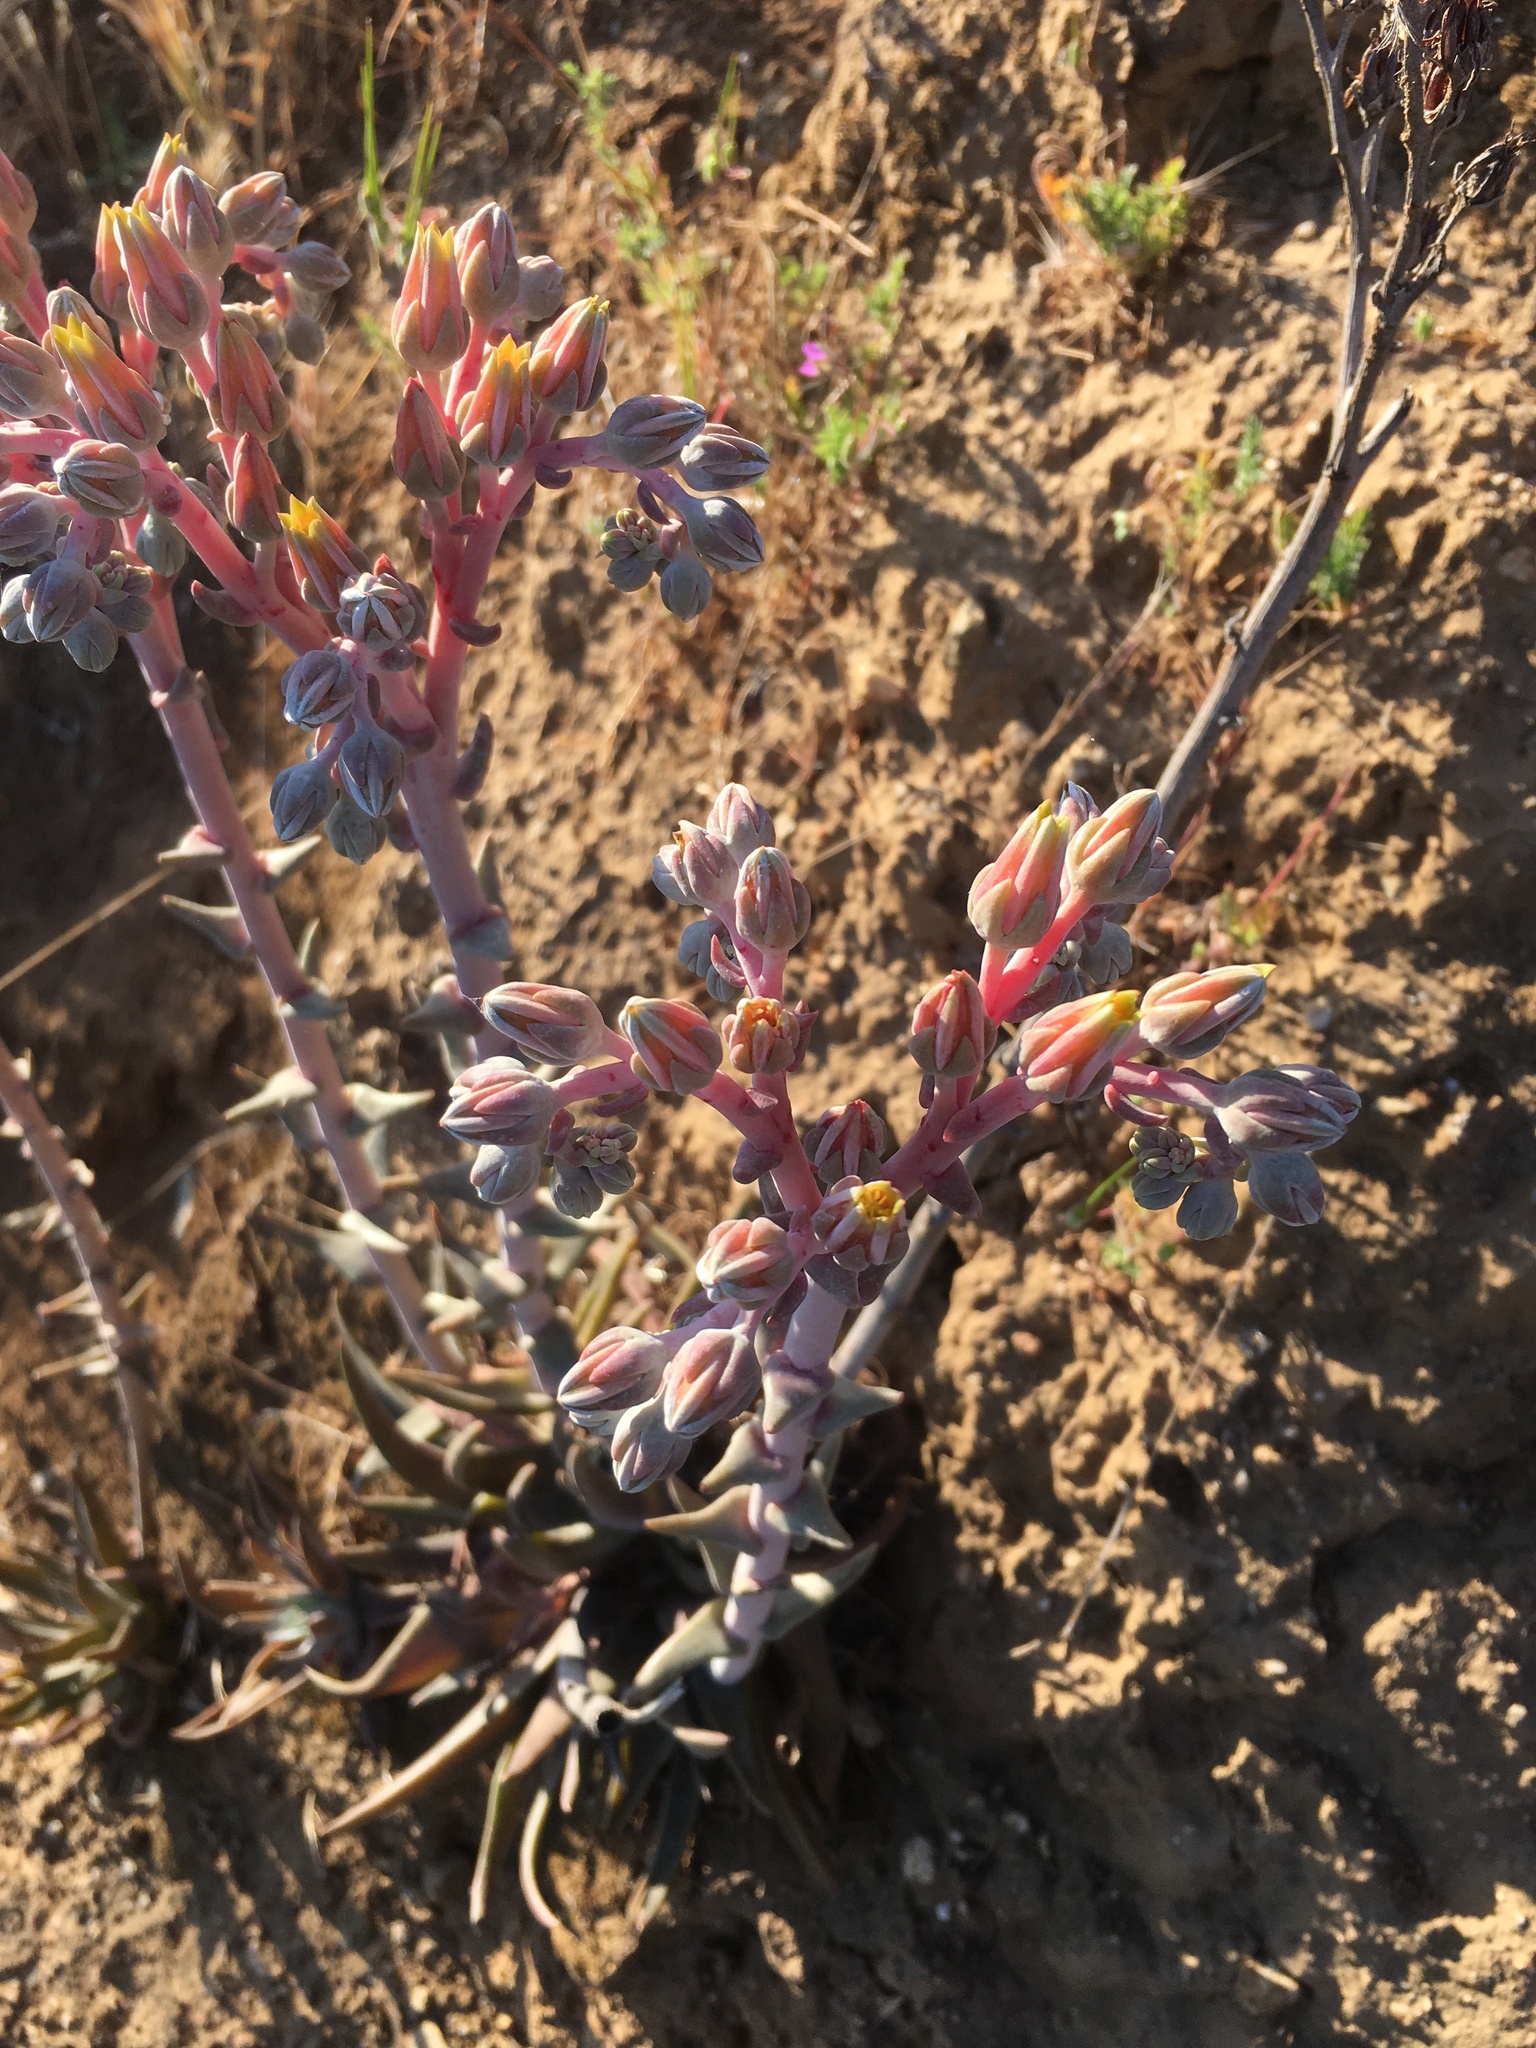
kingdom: Plantae
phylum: Tracheophyta
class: Magnoliopsida
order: Saxifragales
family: Crassulaceae
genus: Dudleya
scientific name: Dudleya lanceolata
